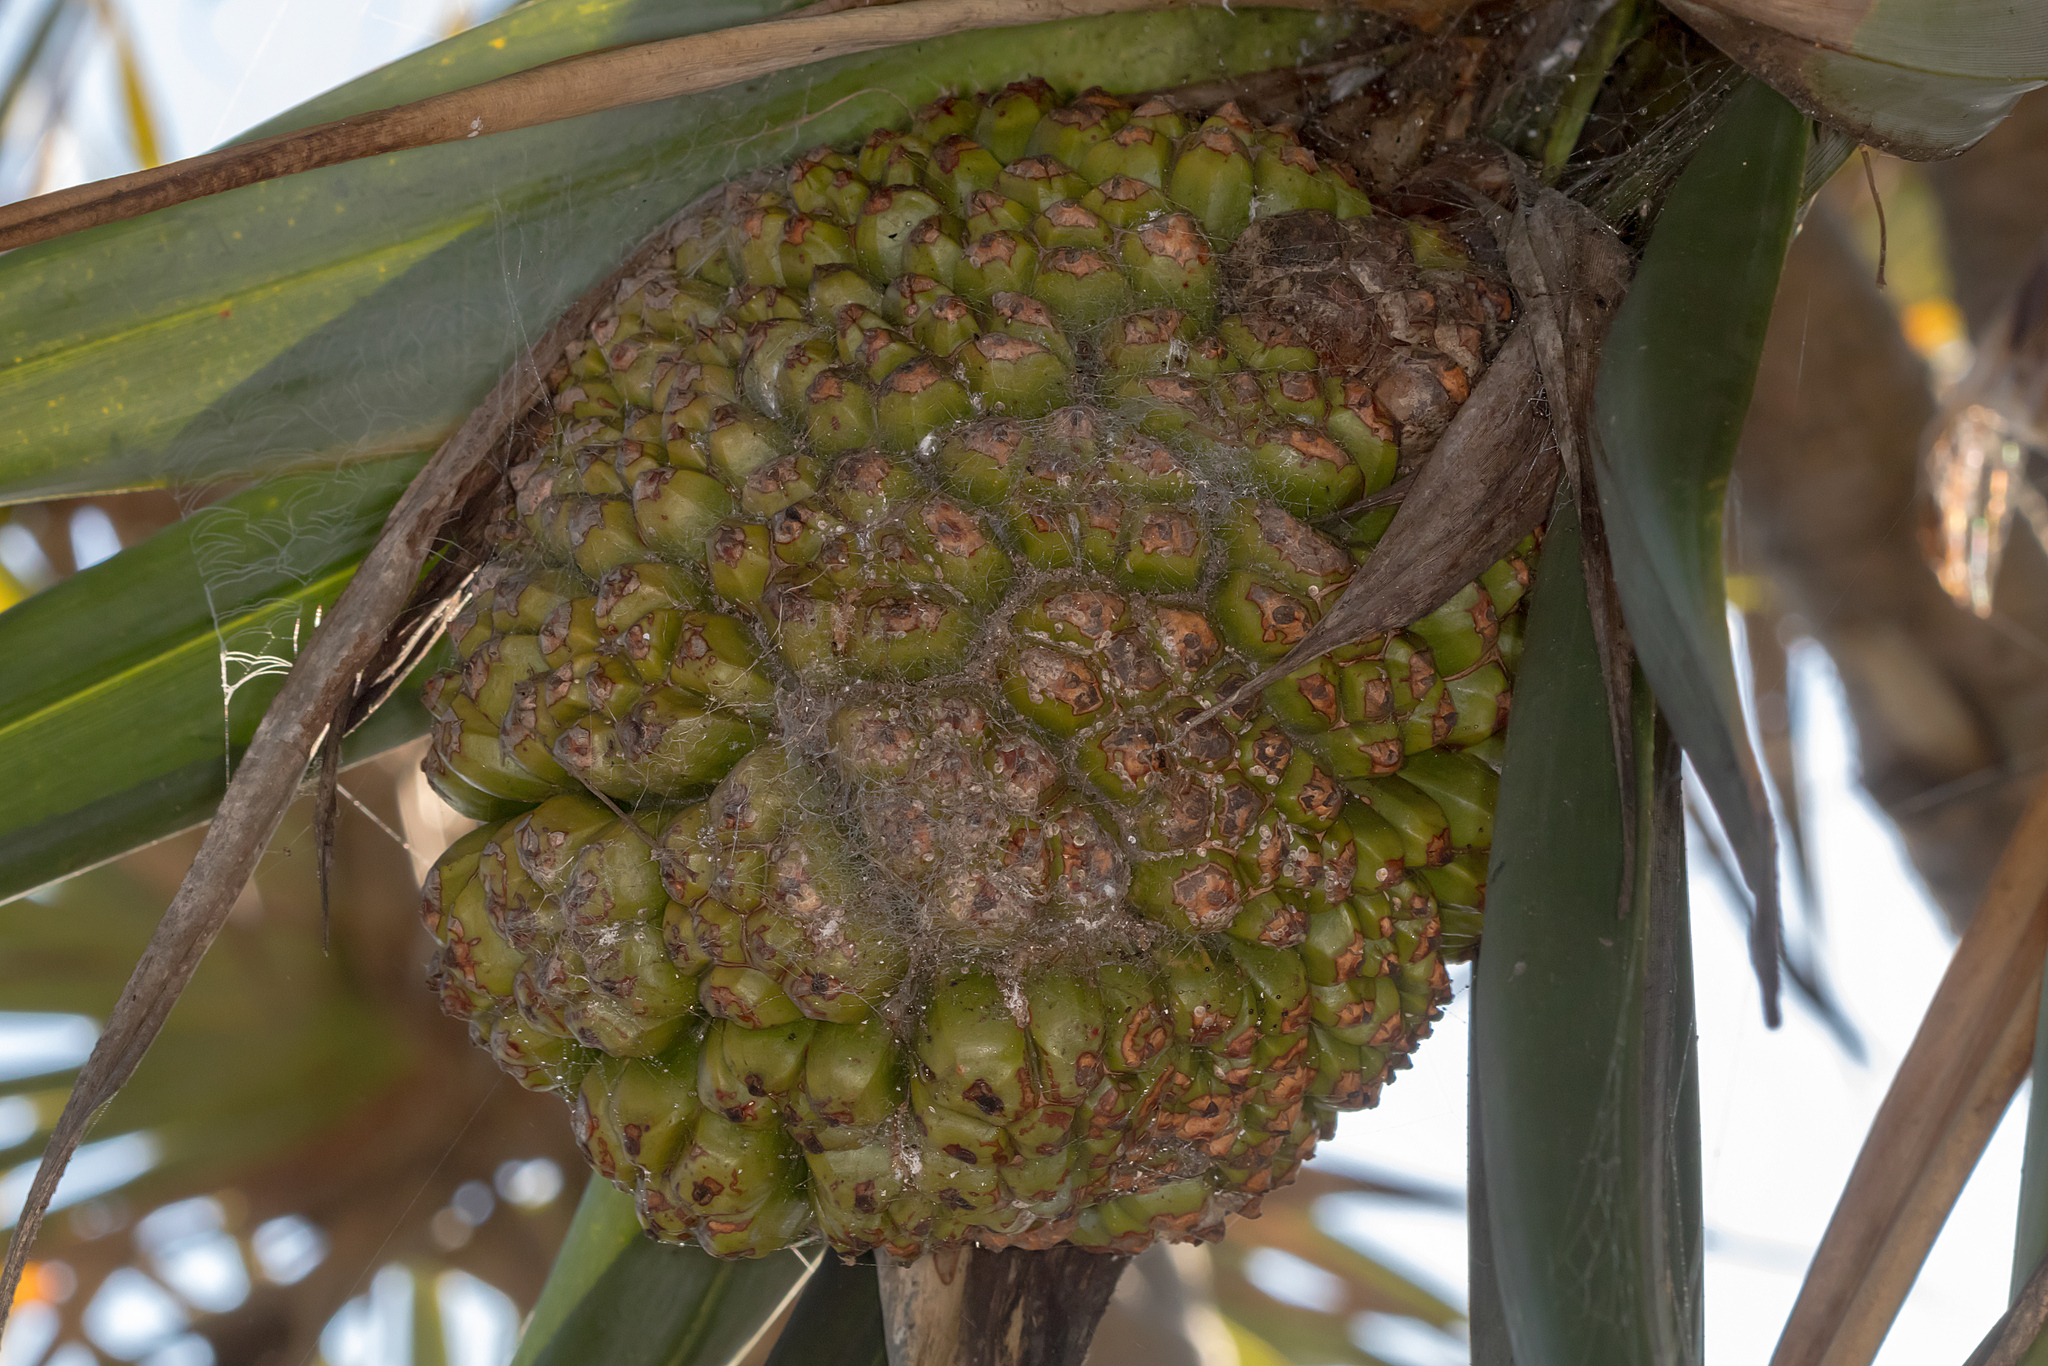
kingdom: Plantae
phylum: Tracheophyta
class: Liliopsida
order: Pandanales
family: Pandanaceae
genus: Pandanus
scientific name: Pandanus tectorius
